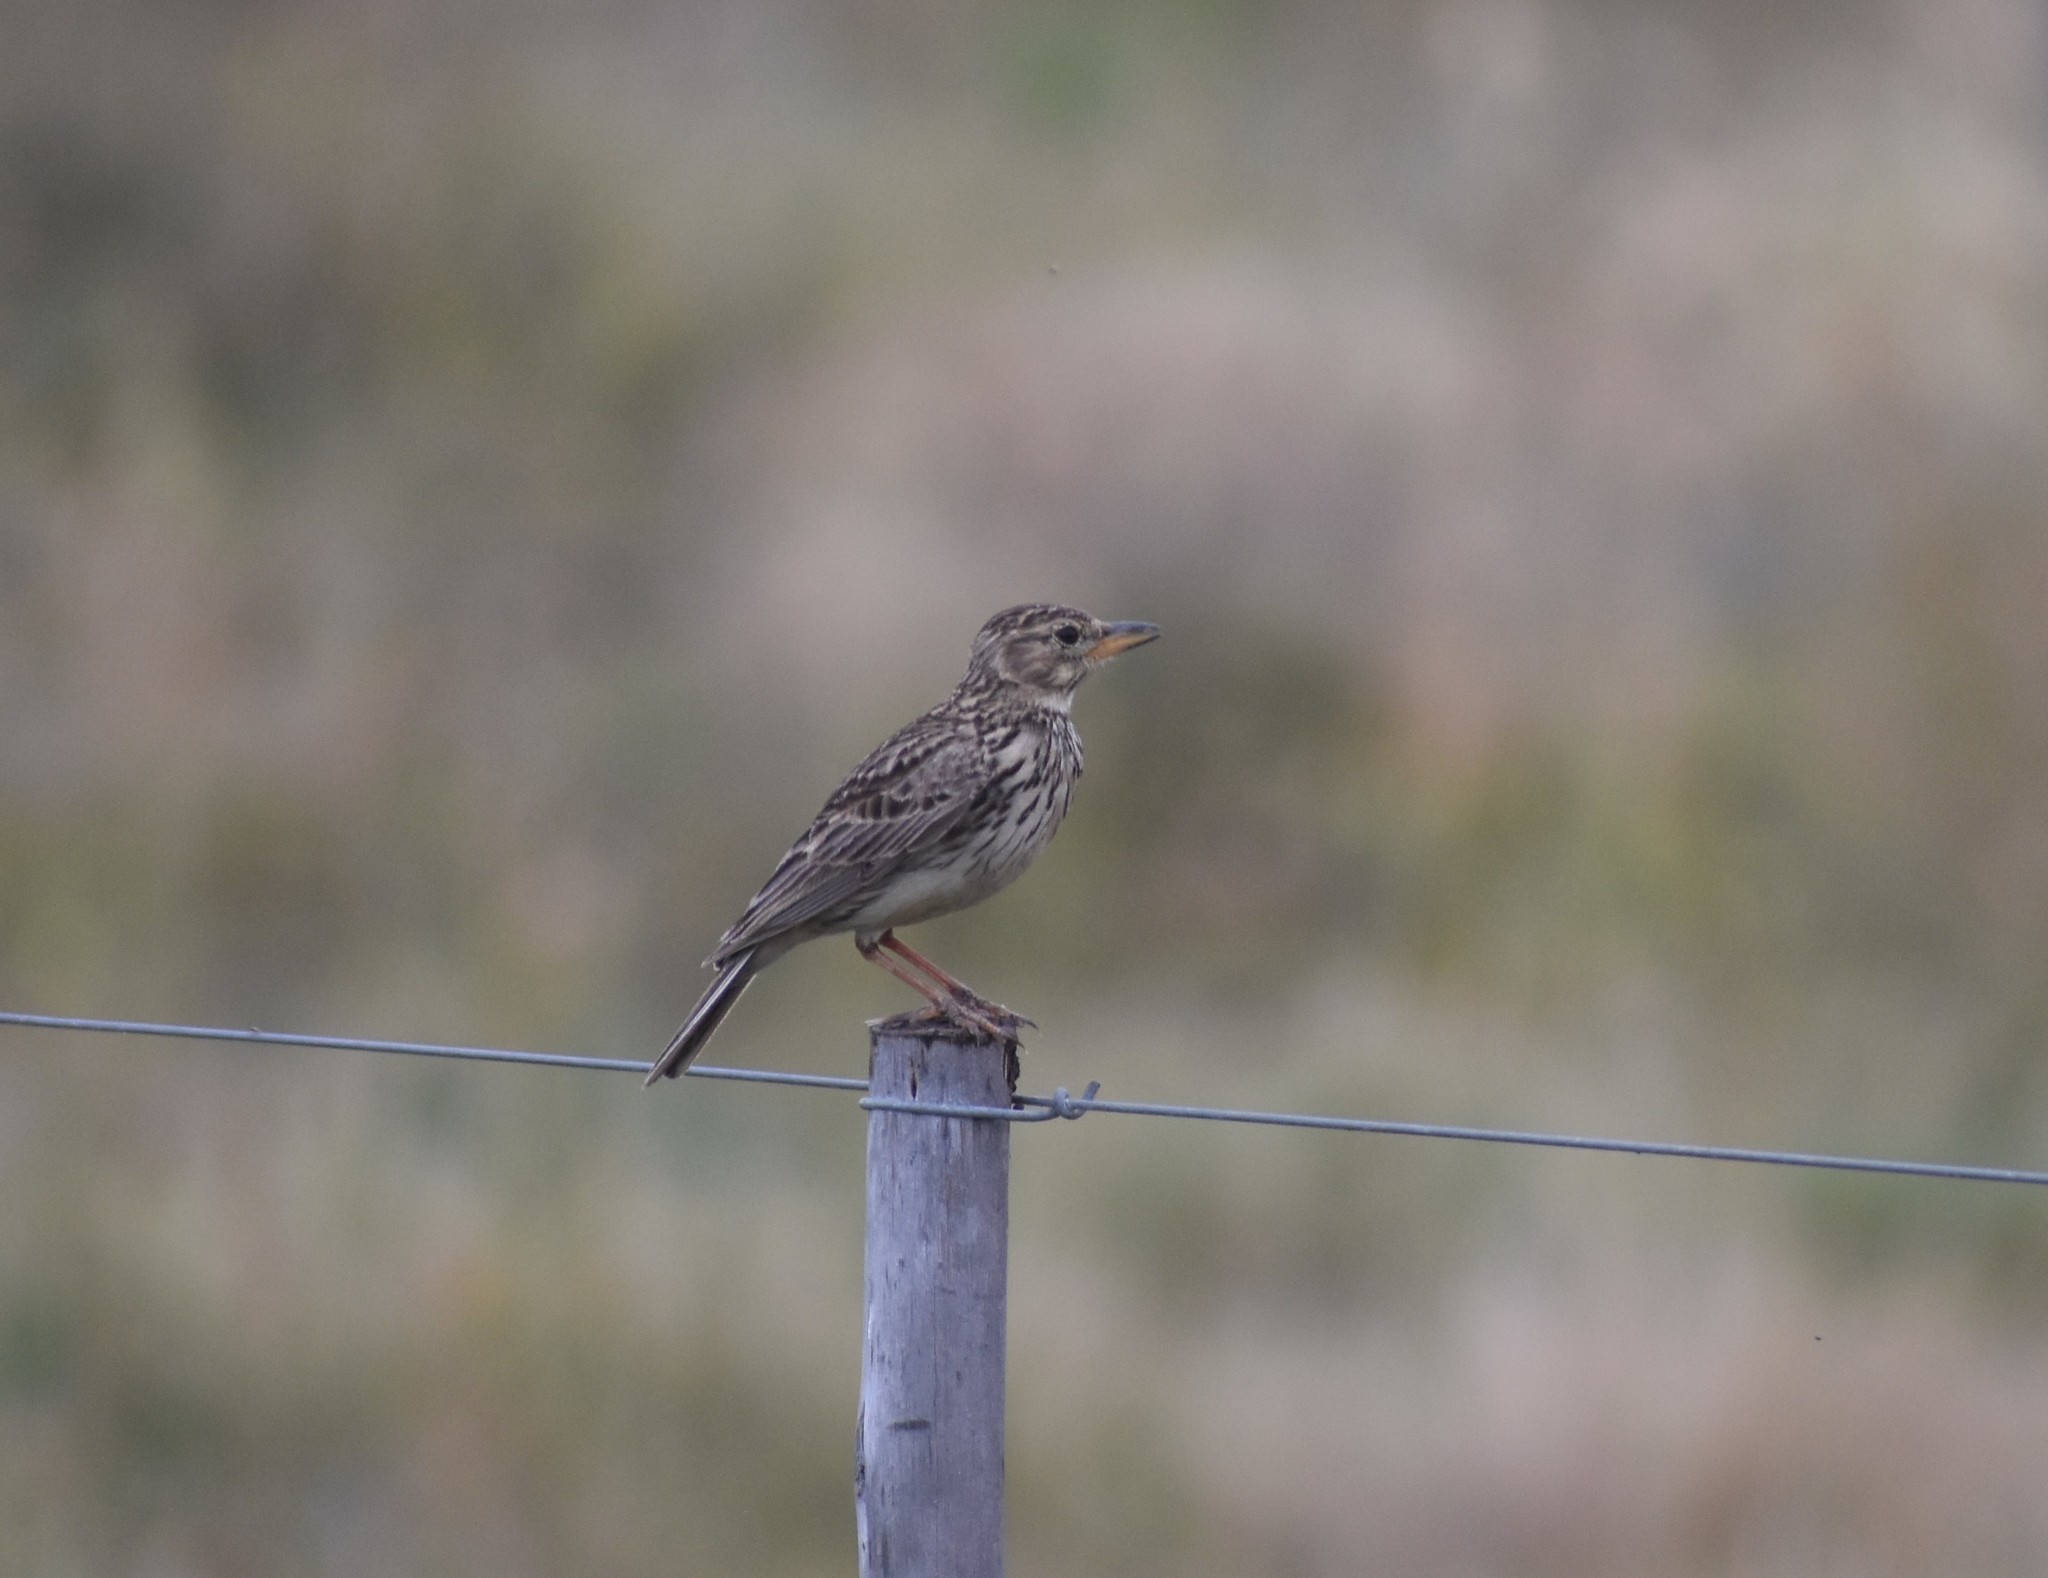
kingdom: Animalia
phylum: Chordata
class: Aves
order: Passeriformes
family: Alaudidae
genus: Galerida
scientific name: Galerida magnirostris
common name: Large-billed lark
